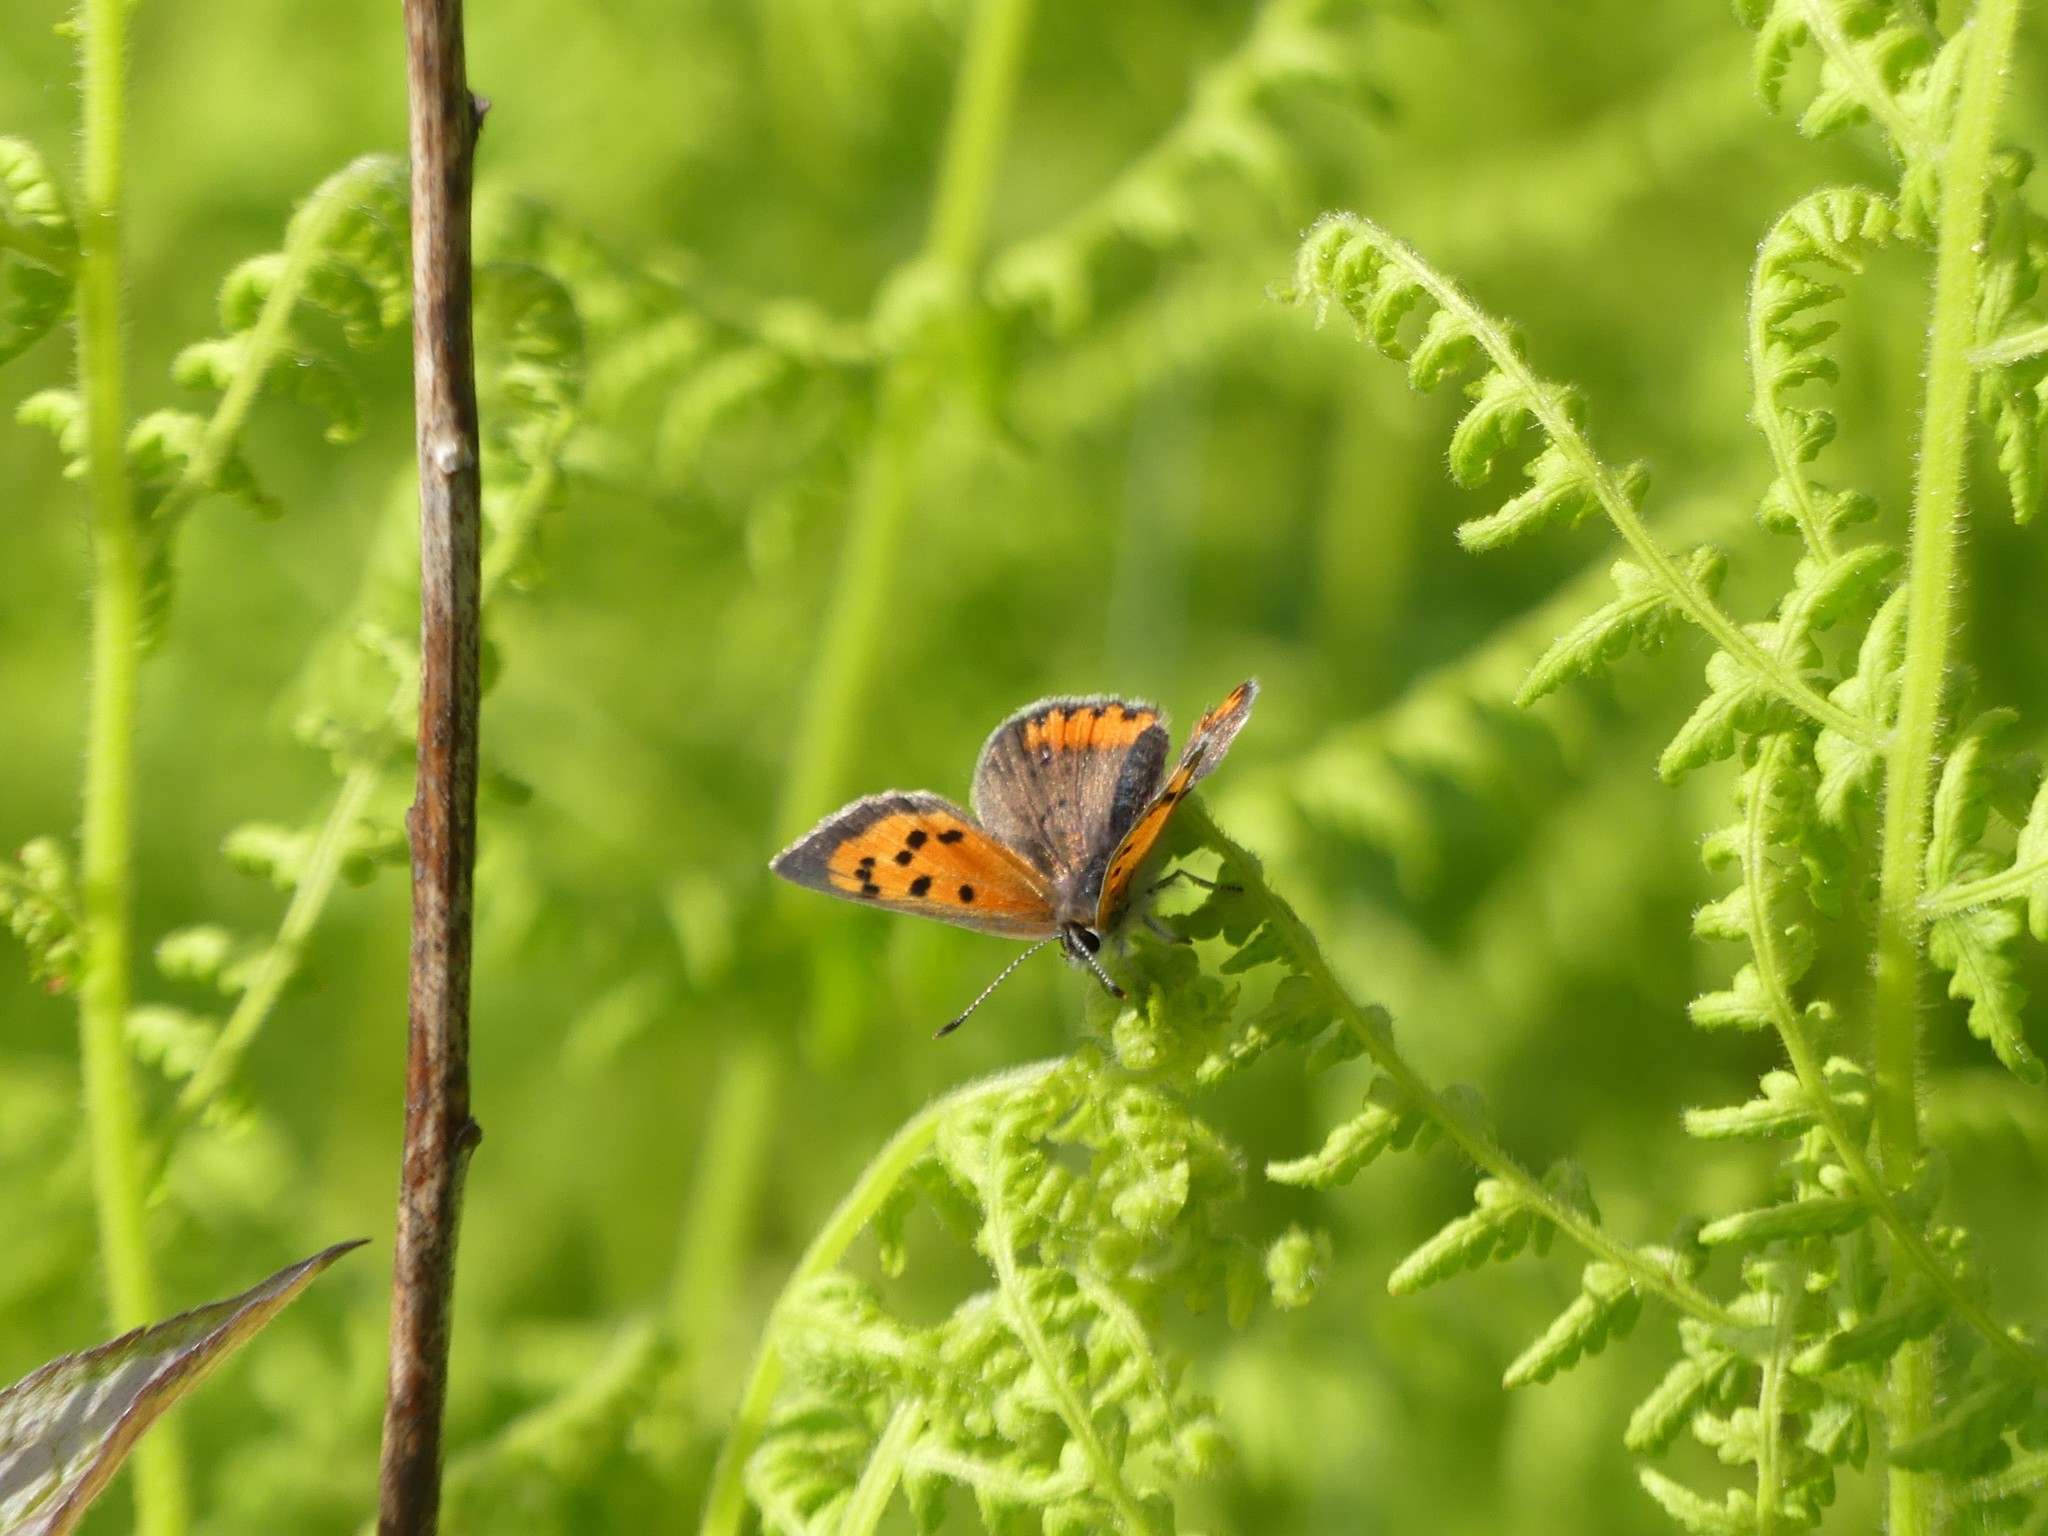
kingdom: Animalia
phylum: Arthropoda
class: Insecta
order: Lepidoptera
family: Lycaenidae
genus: Lycaena
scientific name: Lycaena hypophlaeas
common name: American copper
